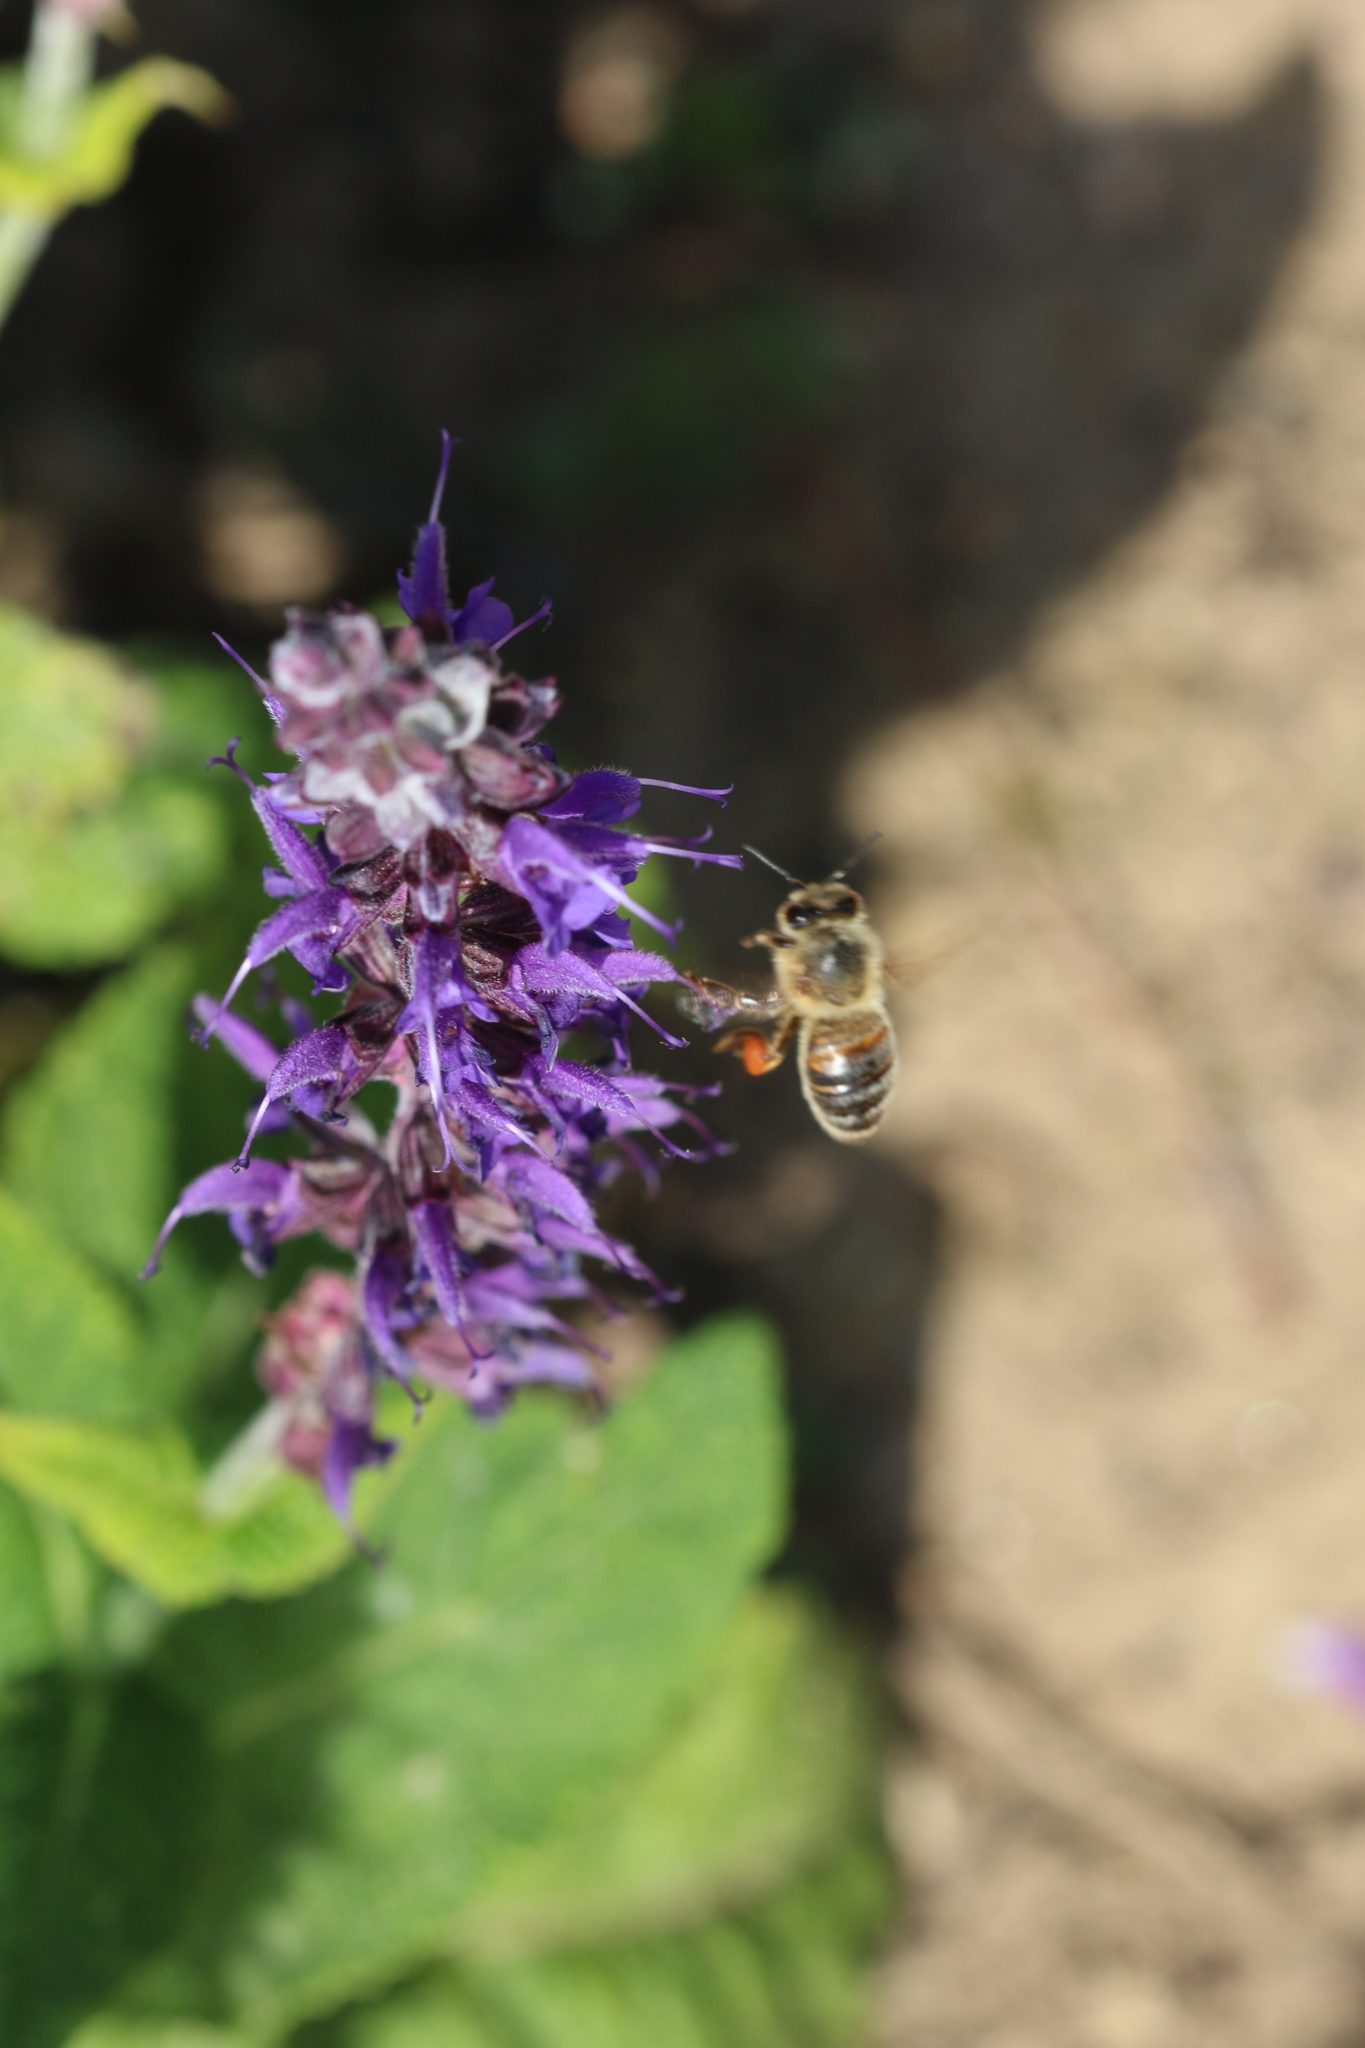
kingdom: Animalia
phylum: Arthropoda
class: Insecta
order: Hymenoptera
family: Apidae
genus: Apis
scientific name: Apis mellifera
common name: Honey bee
